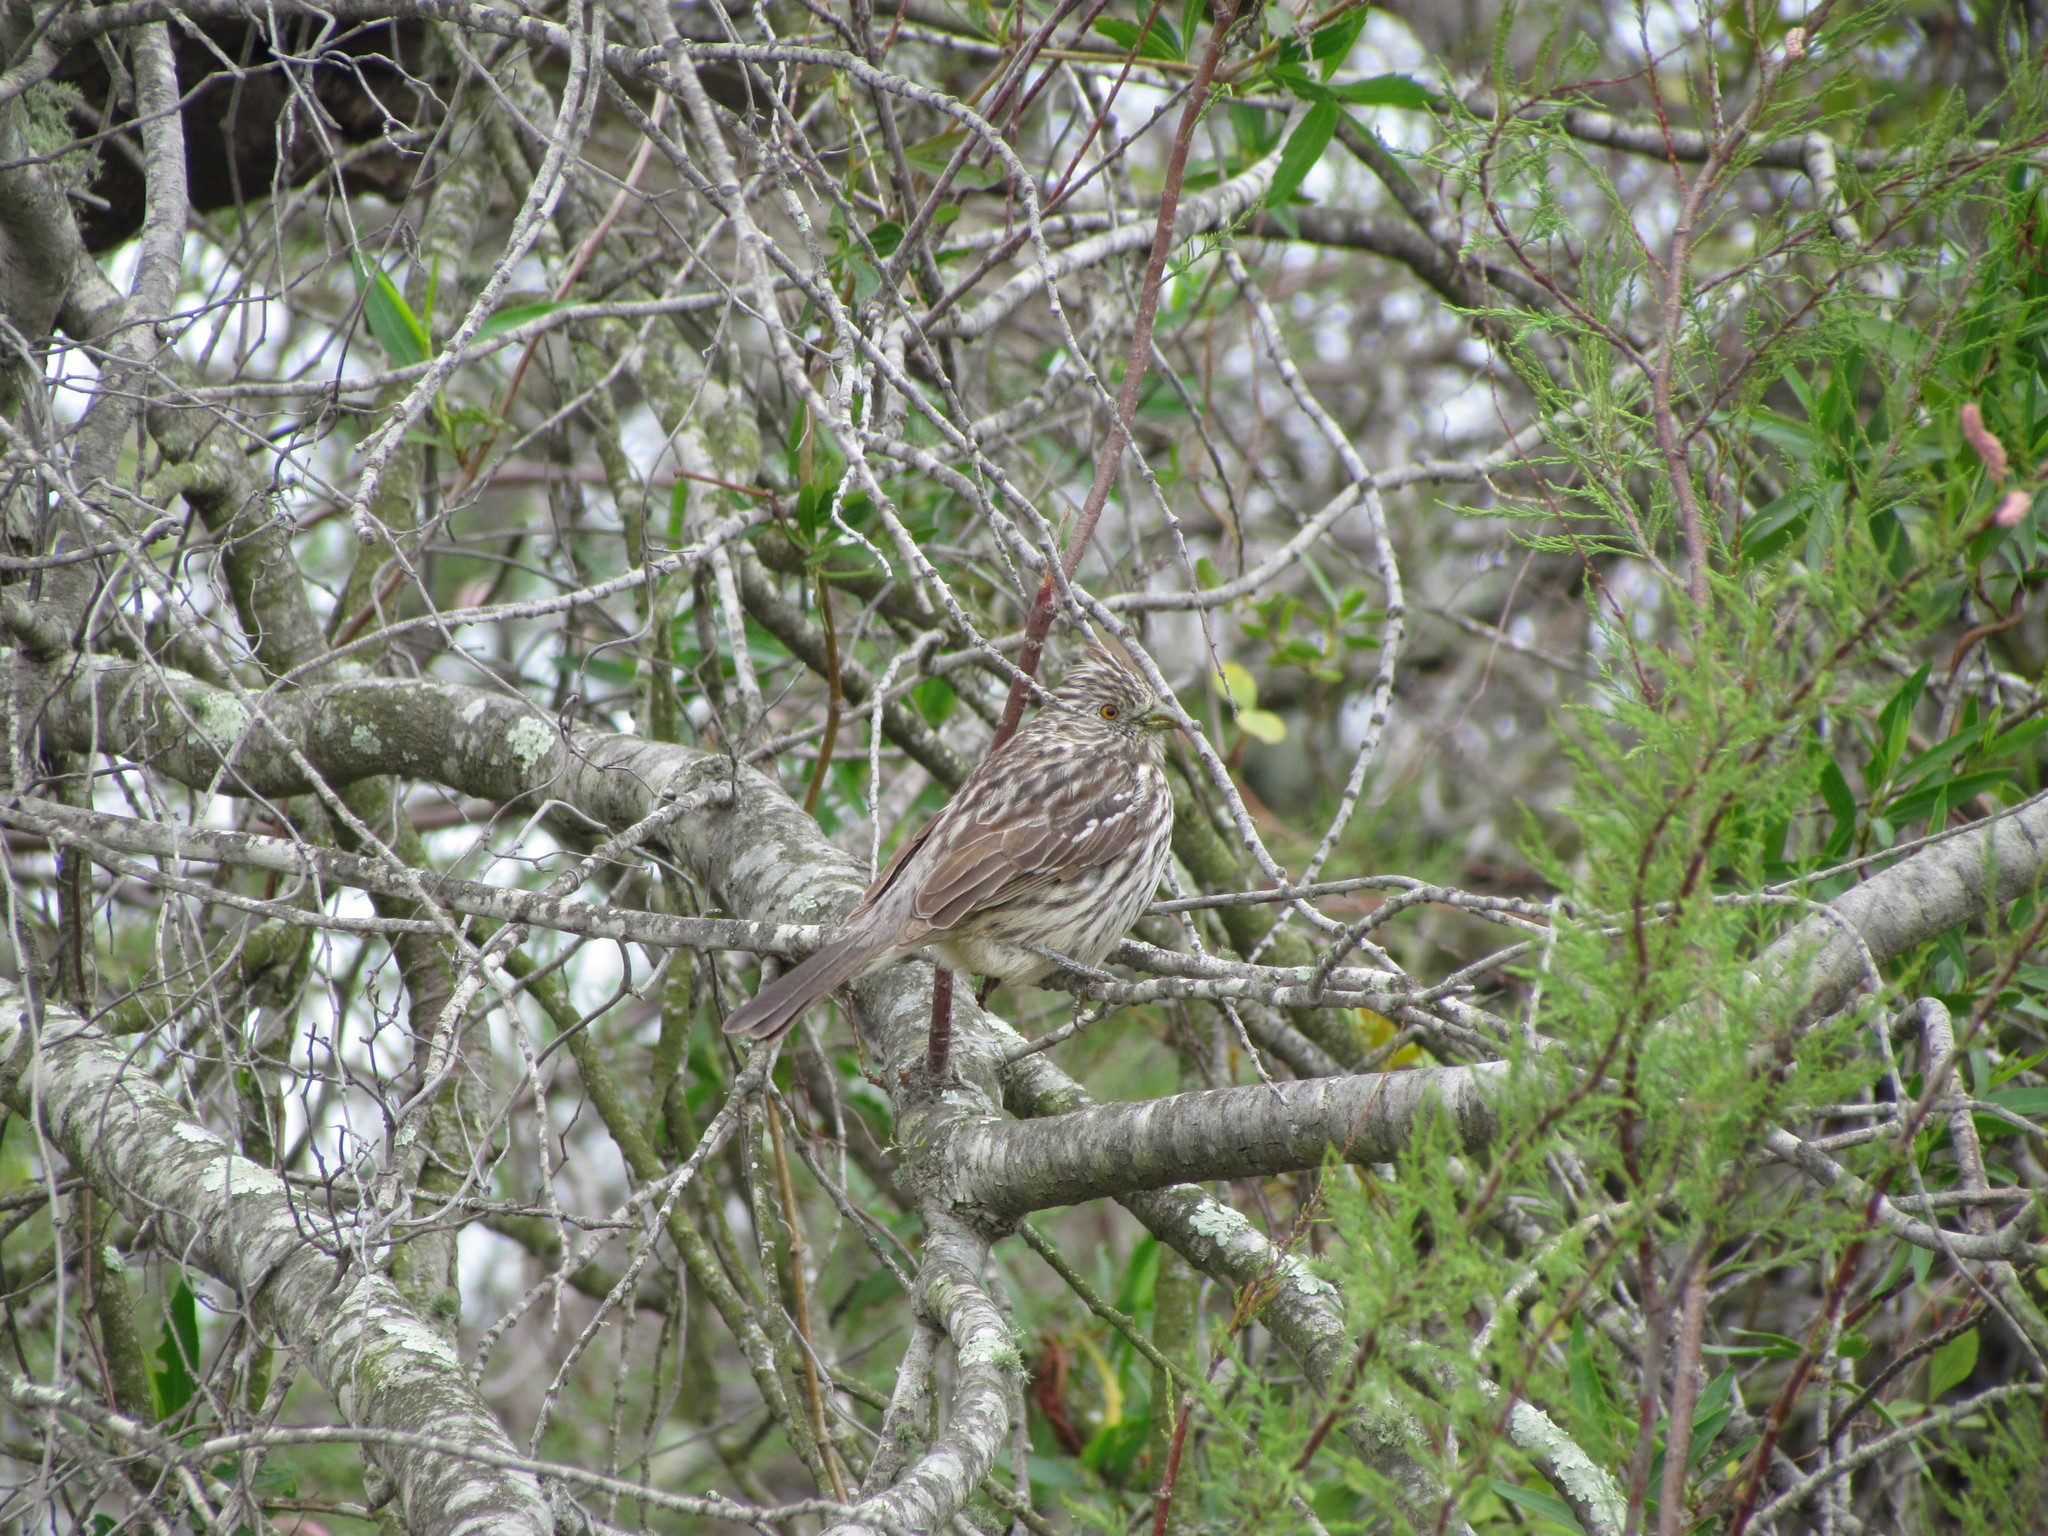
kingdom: Animalia
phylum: Chordata
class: Aves
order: Passeriformes
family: Cotingidae
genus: Phytotoma
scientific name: Phytotoma rutila
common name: White-tipped plantcutter
